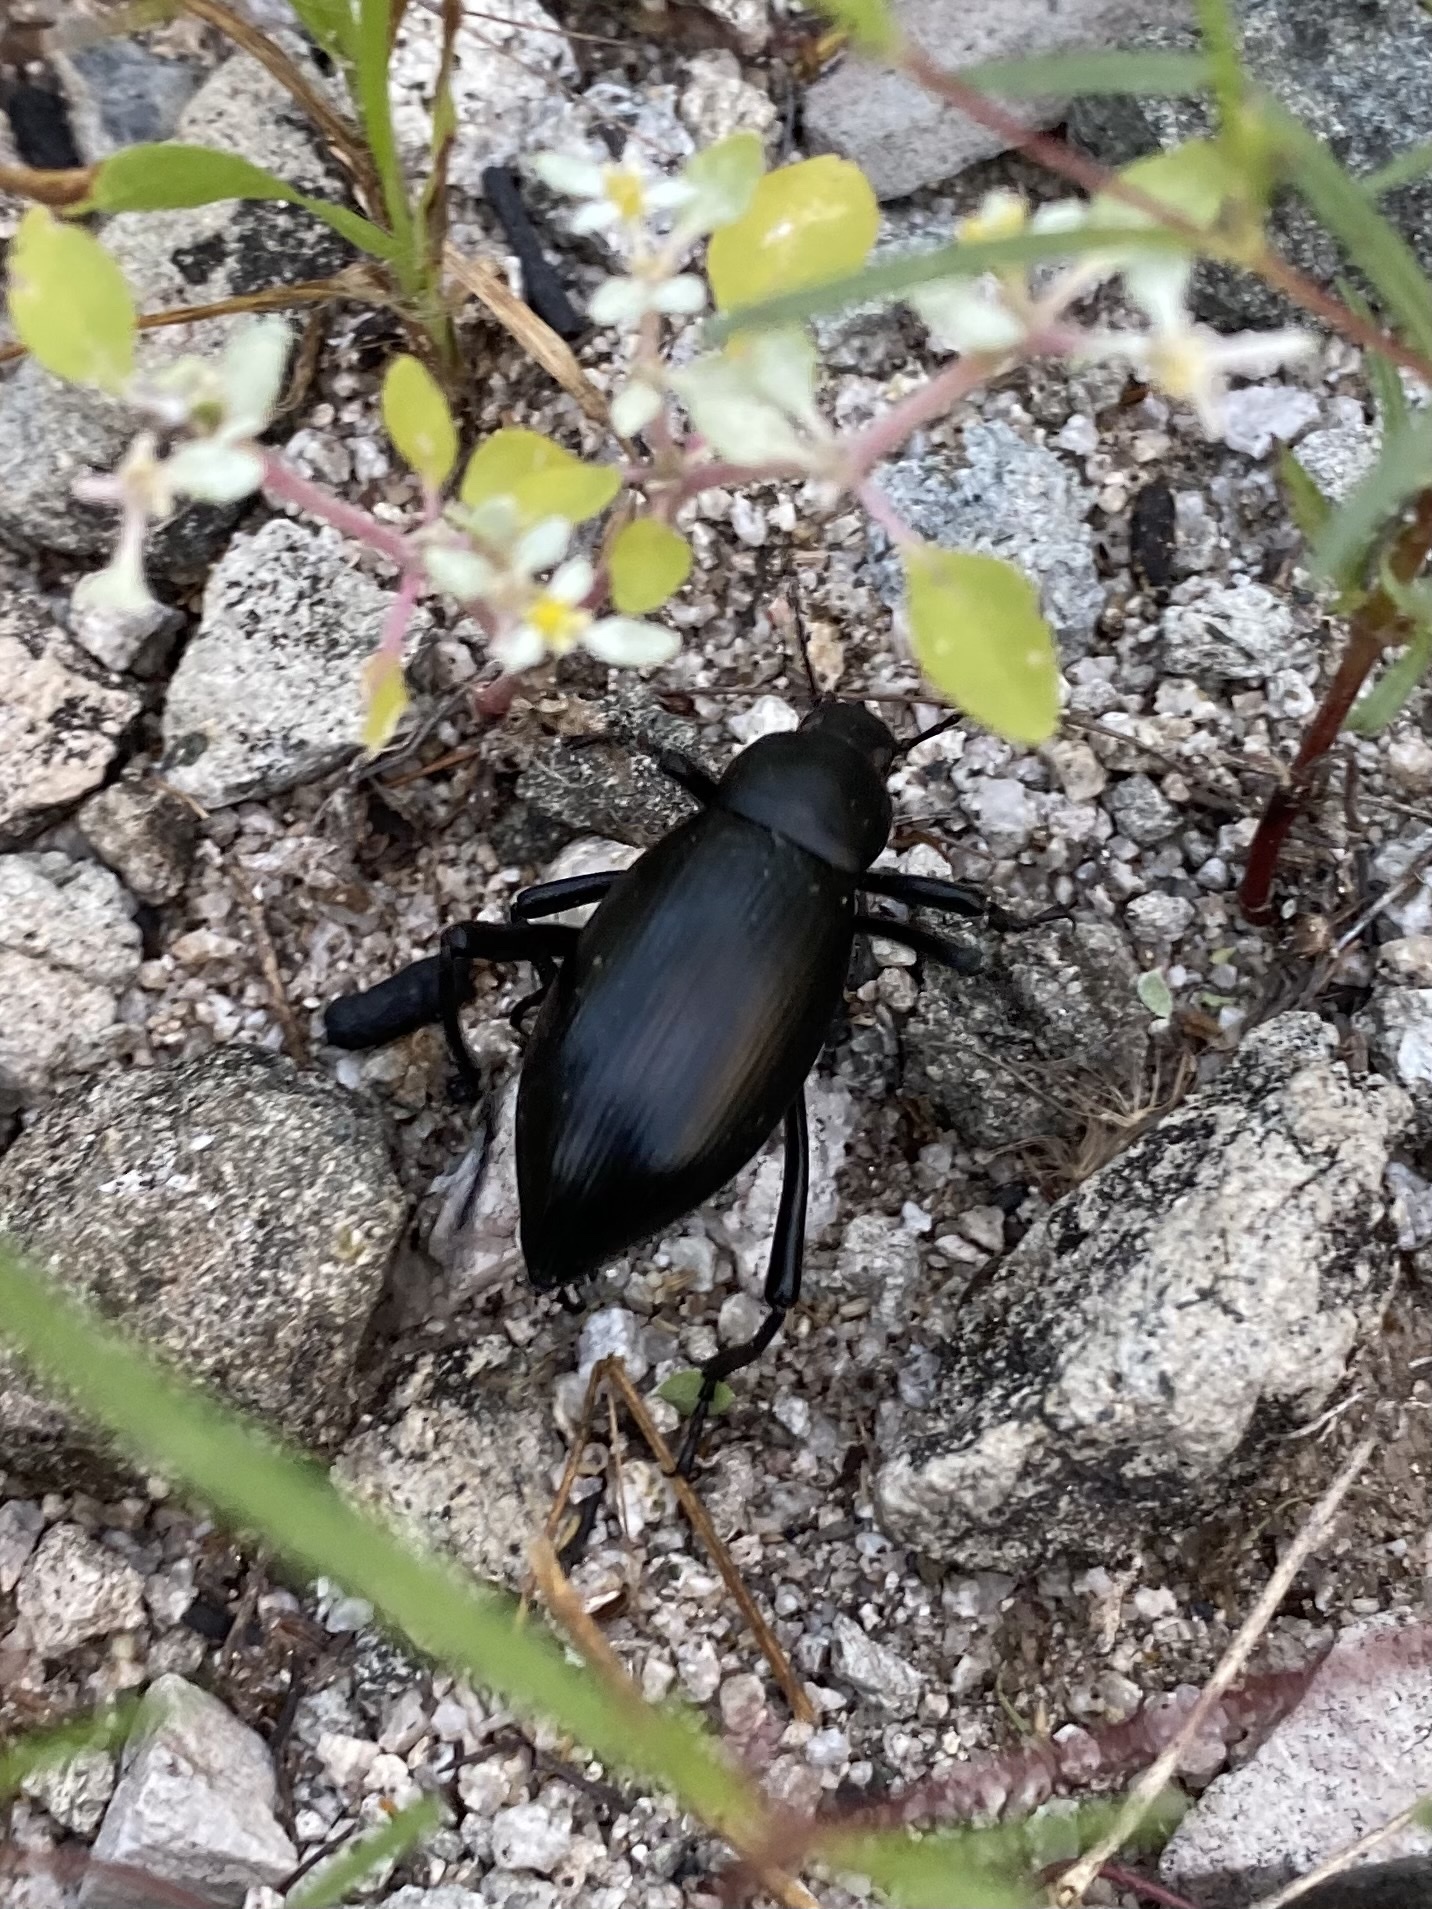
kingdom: Animalia
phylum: Arthropoda
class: Insecta
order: Coleoptera
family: Tenebrionidae
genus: Eleodes
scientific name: Eleodes eschscholtzii
